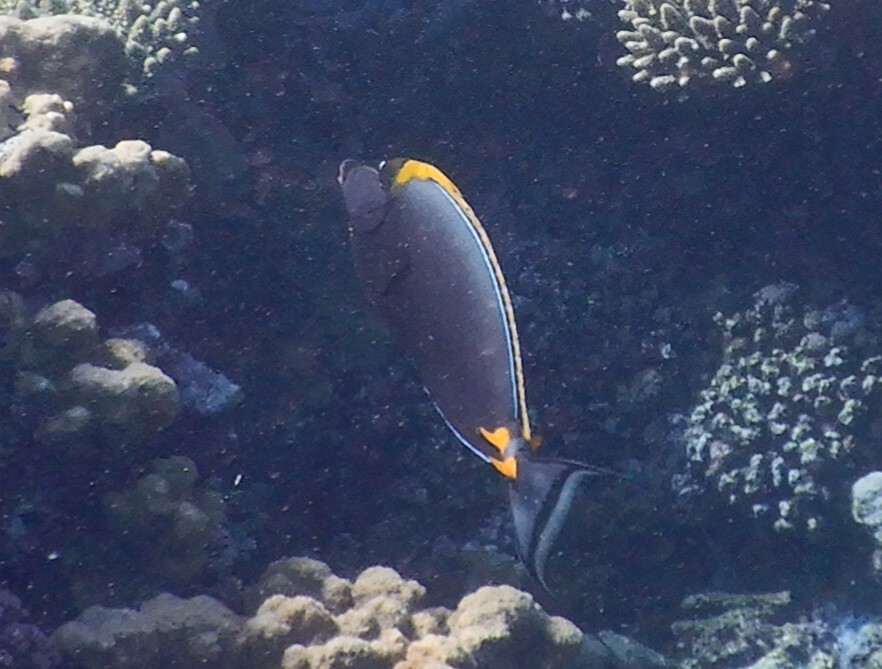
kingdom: Animalia
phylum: Chordata
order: Perciformes
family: Acanthuridae
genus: Naso
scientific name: Naso elegans
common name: Orangespine unicornfish
